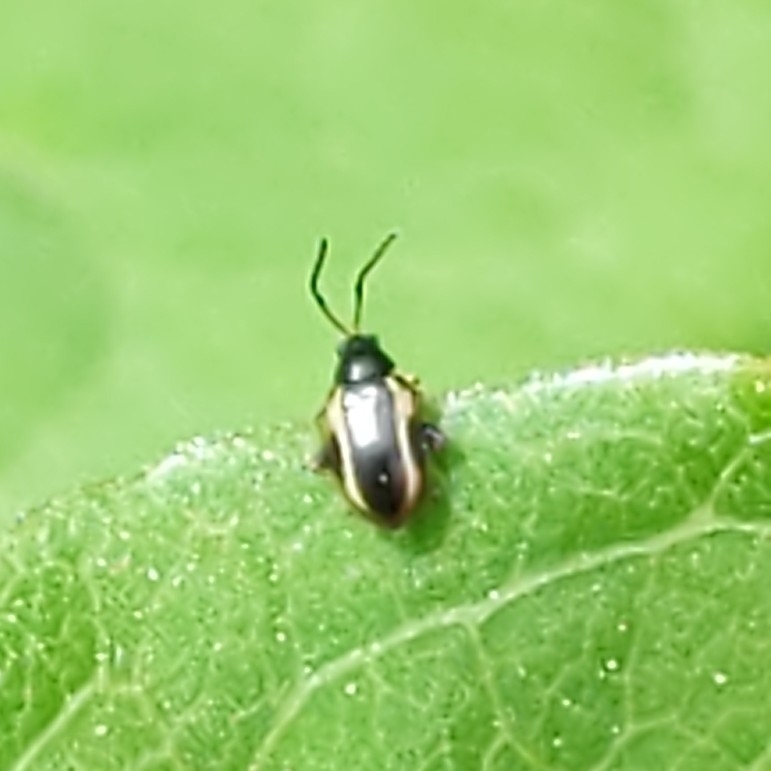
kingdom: Animalia
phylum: Arthropoda
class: Insecta
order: Coleoptera
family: Chrysomelidae
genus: Phyllotreta
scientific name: Phyllotreta
